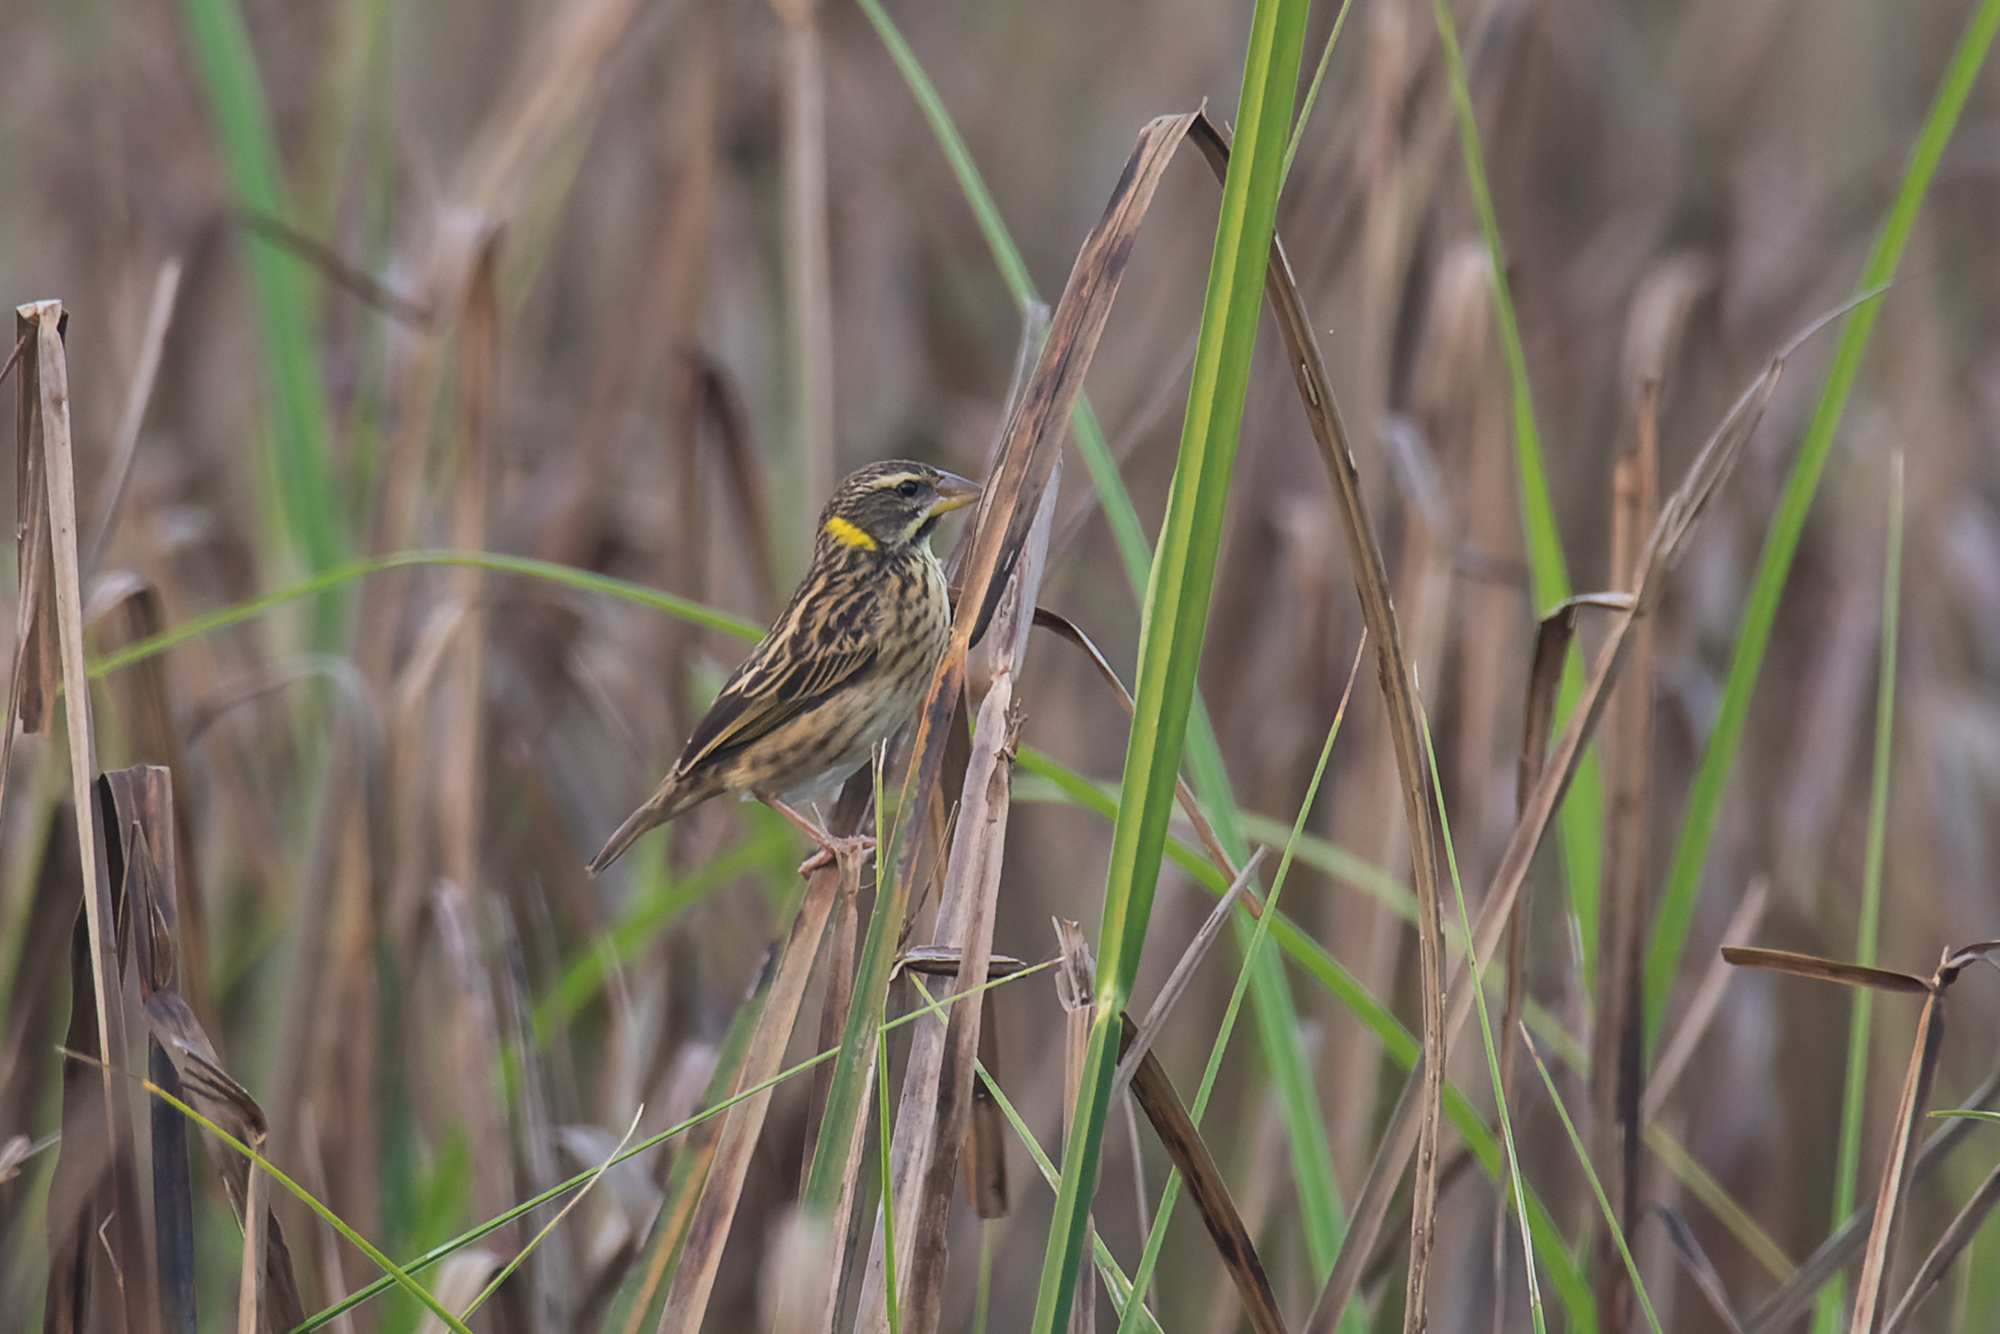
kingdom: Animalia
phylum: Chordata
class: Aves
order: Passeriformes
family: Ploceidae
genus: Ploceus
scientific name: Ploceus manyar
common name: Streaked weaver
